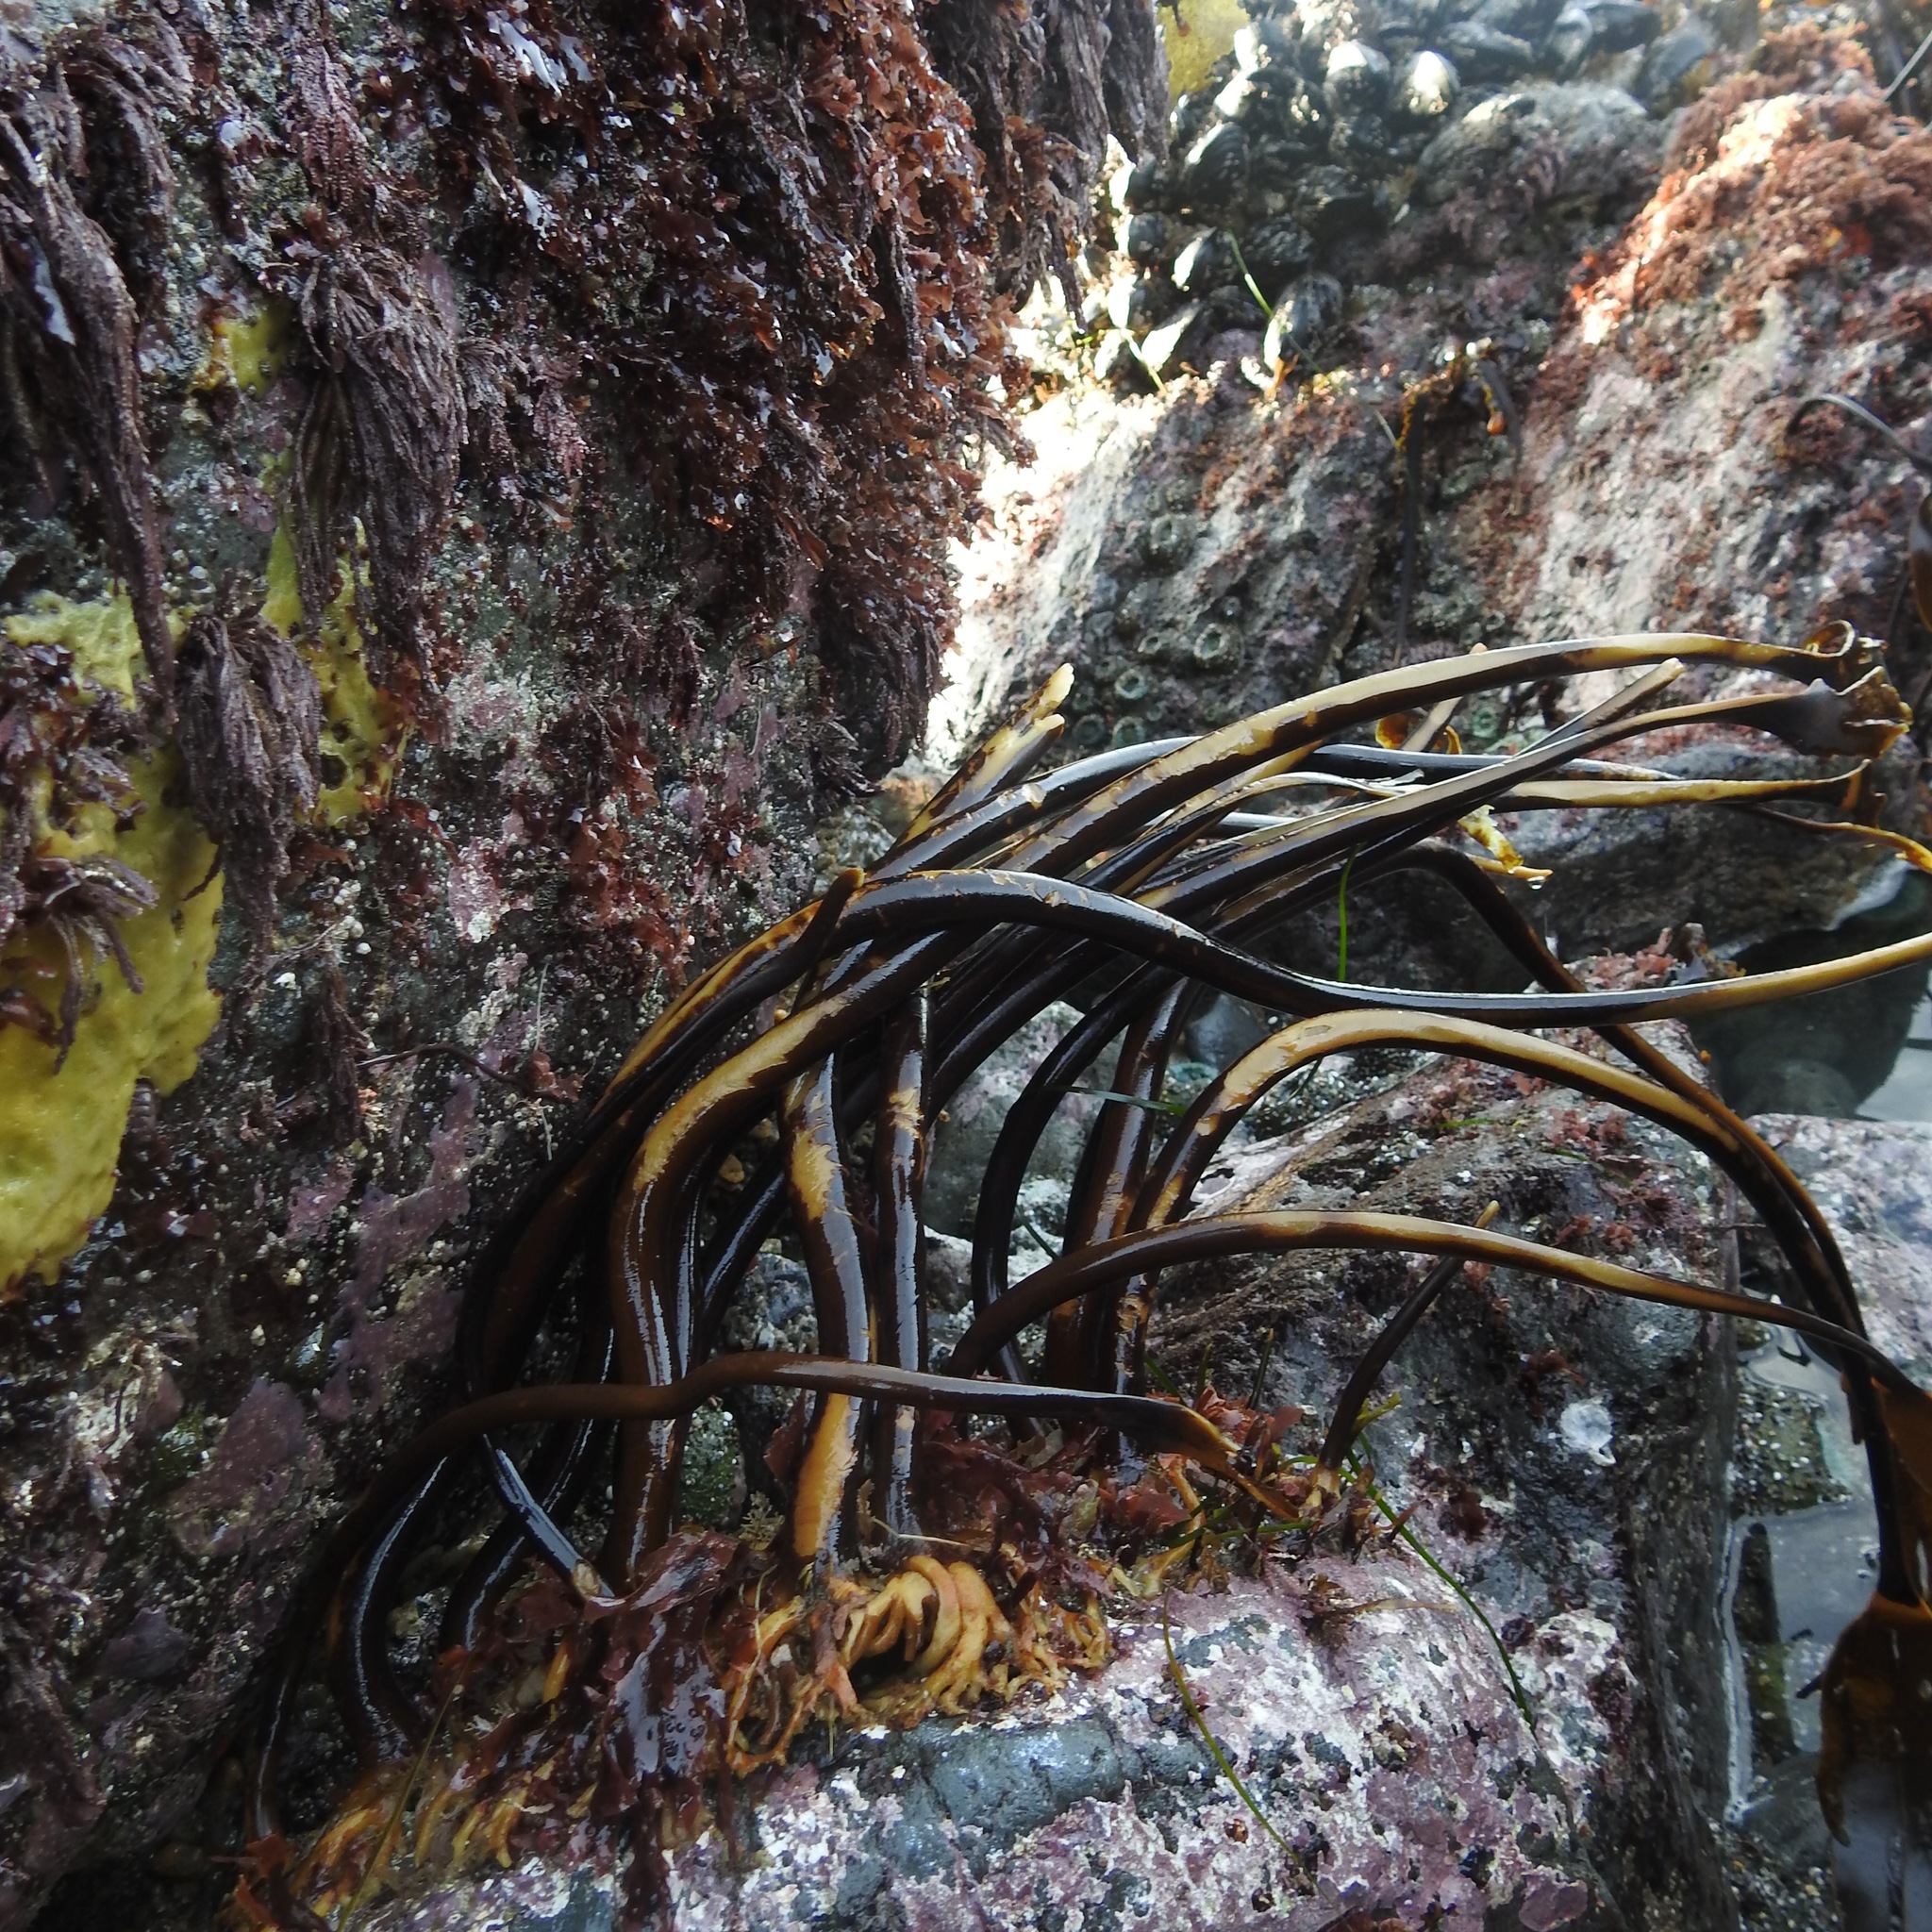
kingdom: Chromista
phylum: Ochrophyta
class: Phaeophyceae
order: Laminariales
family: Laminariaceae
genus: Laminaria
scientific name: Laminaria setchellii
